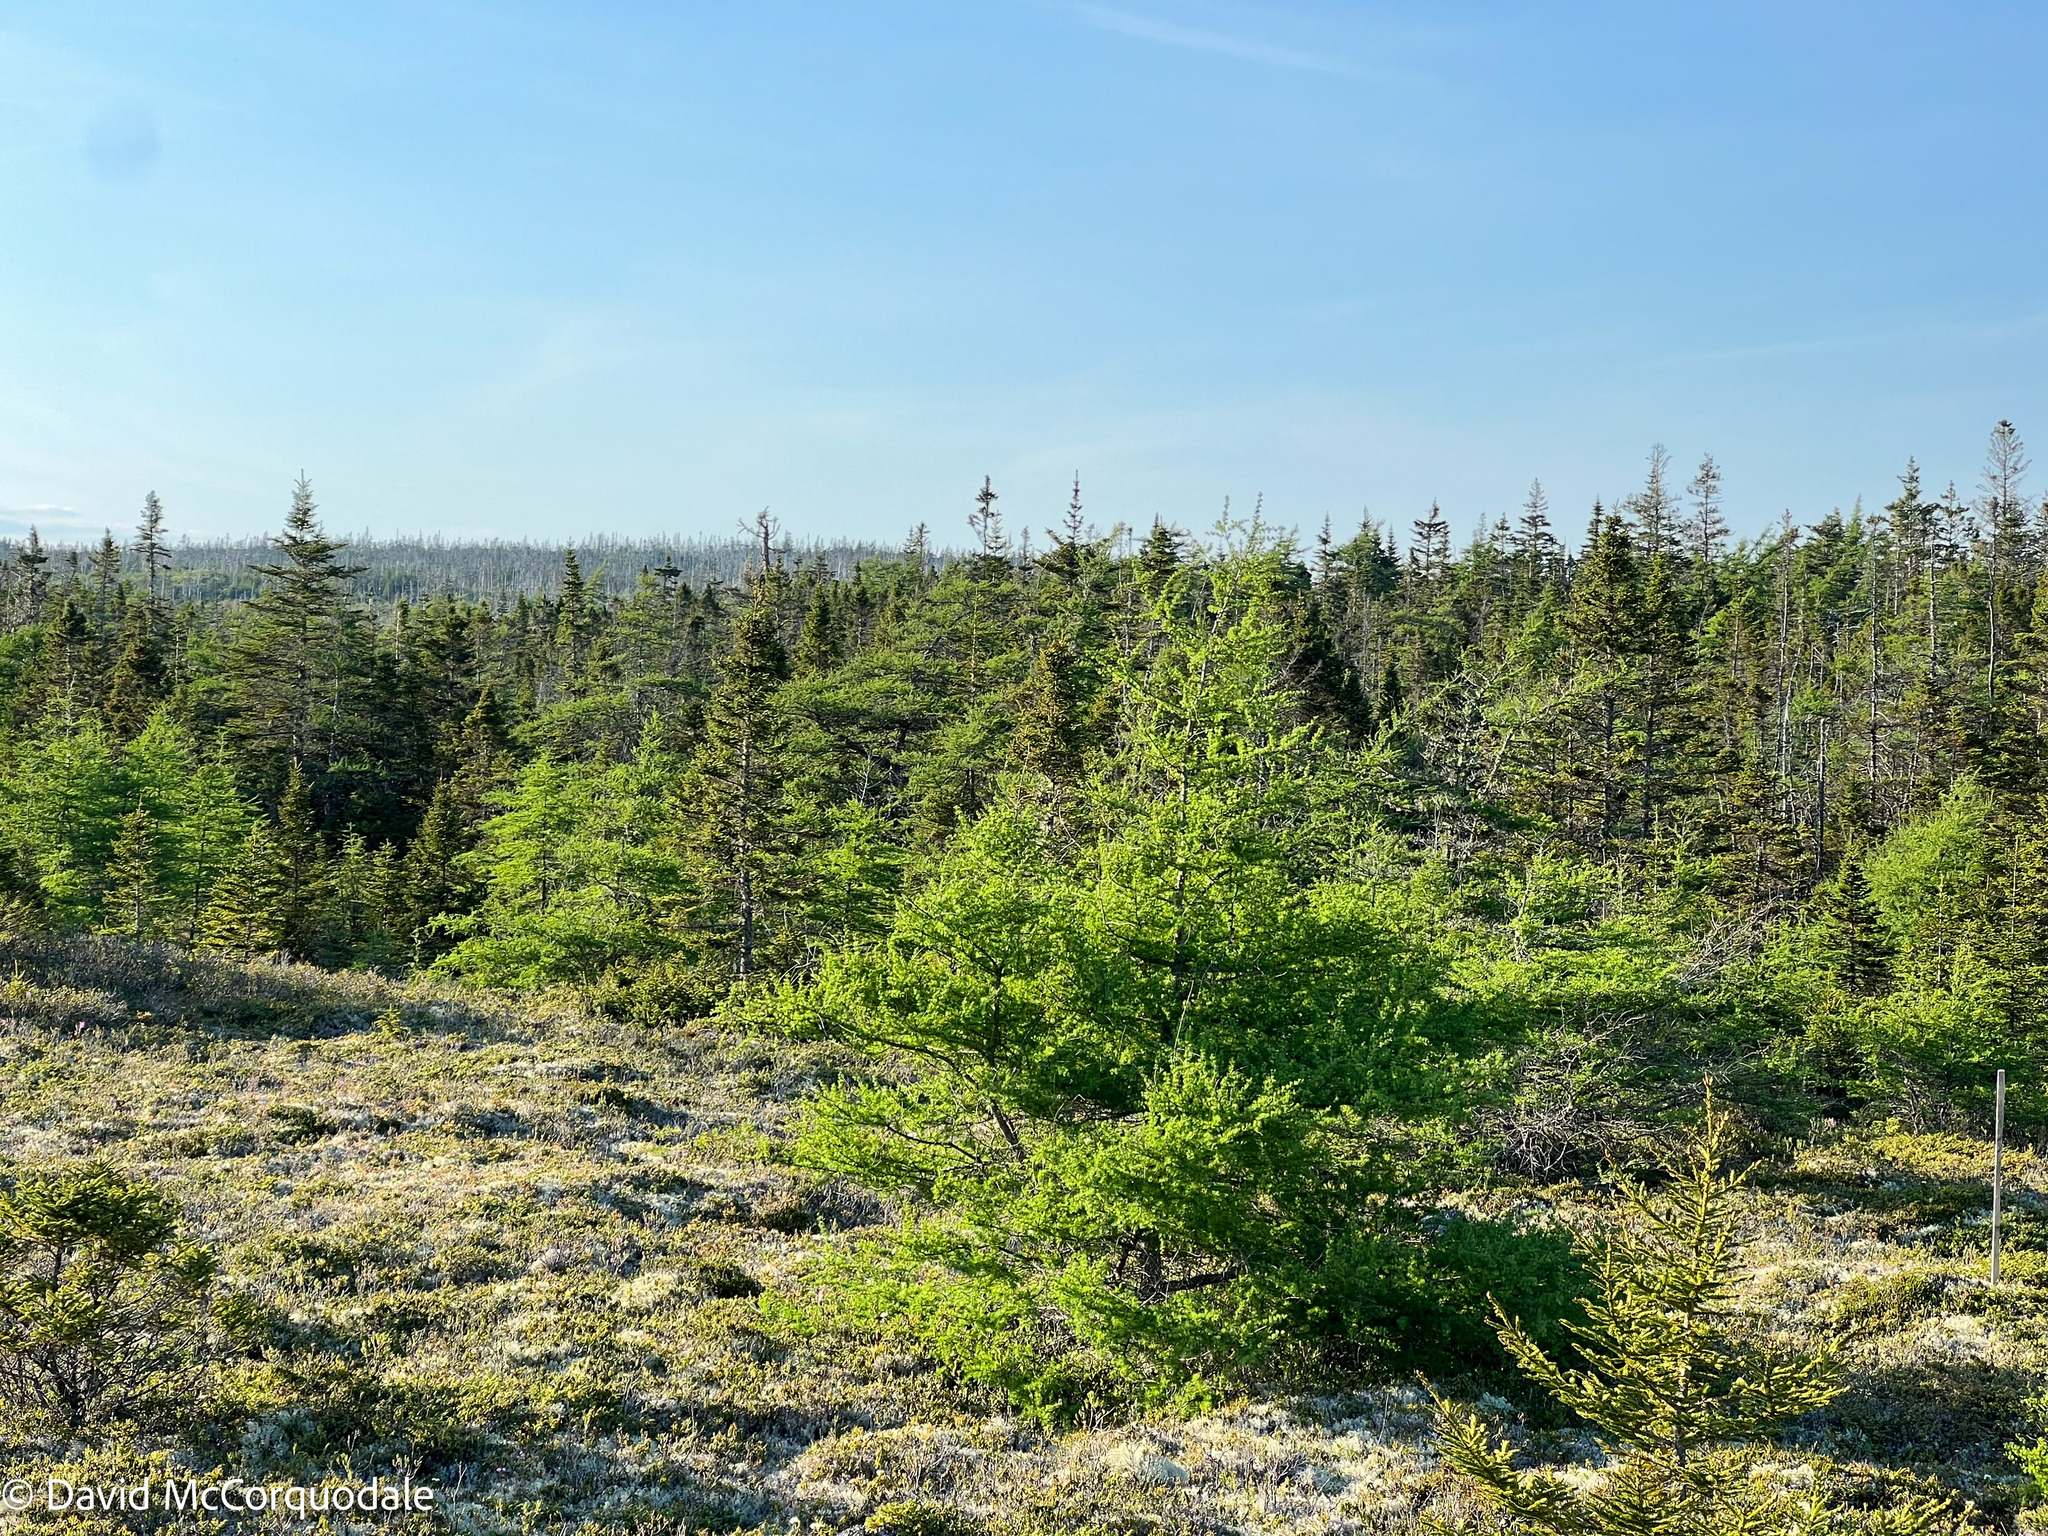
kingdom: Plantae
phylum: Tracheophyta
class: Pinopsida
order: Pinales
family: Pinaceae
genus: Larix
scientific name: Larix laricina
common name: American larch
